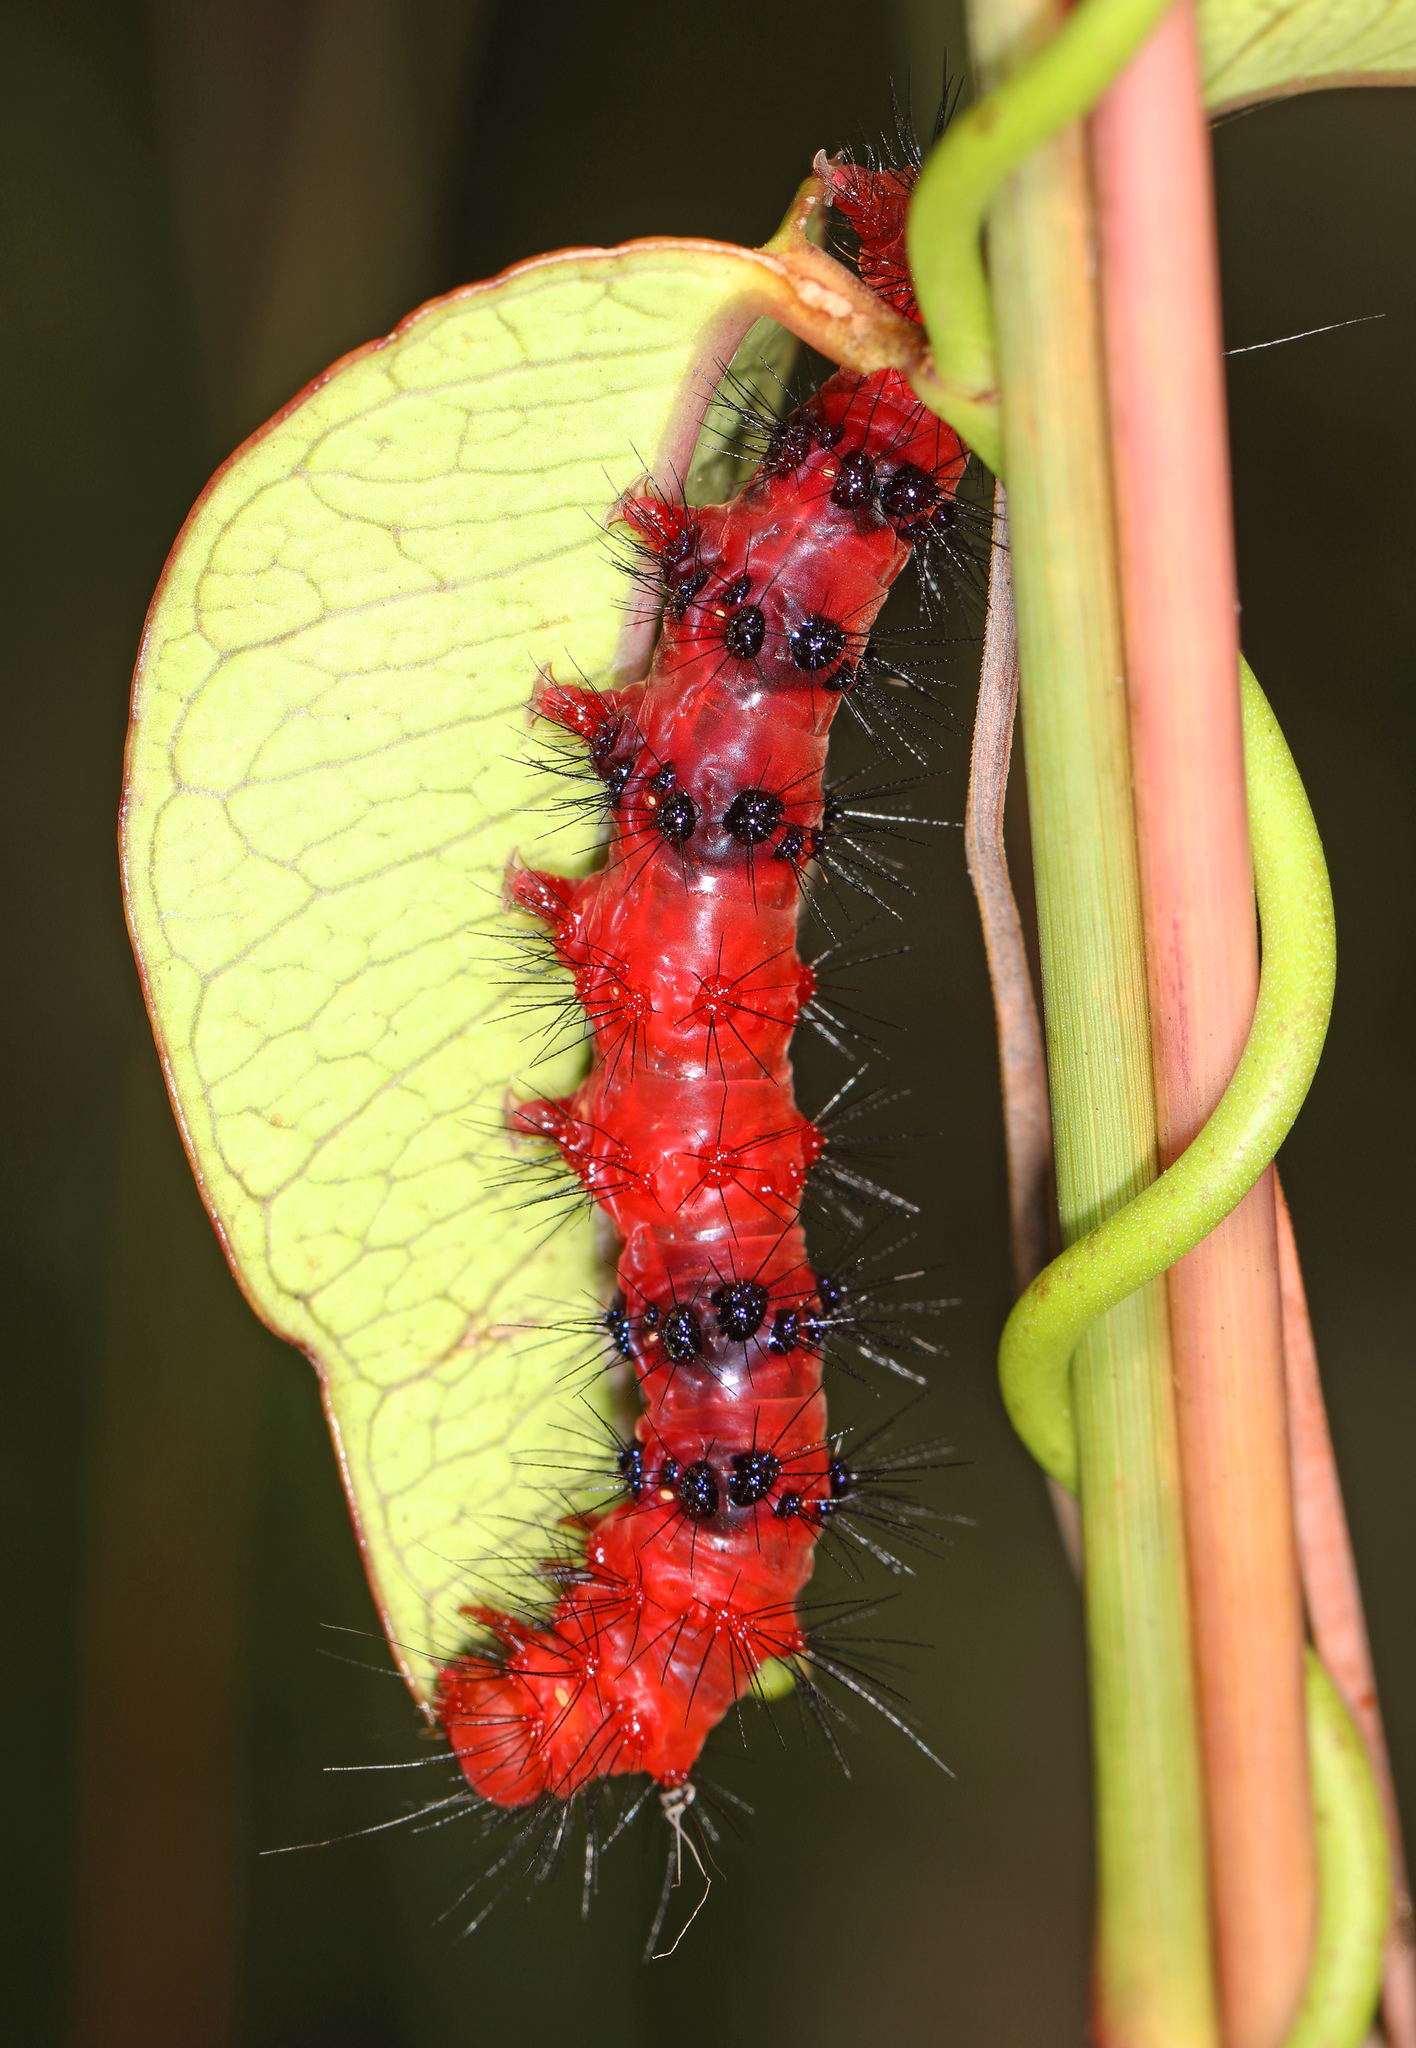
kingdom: Animalia
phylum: Arthropoda
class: Insecta
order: Lepidoptera
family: Erebidae
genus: Composia
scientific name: Composia fidelissima
